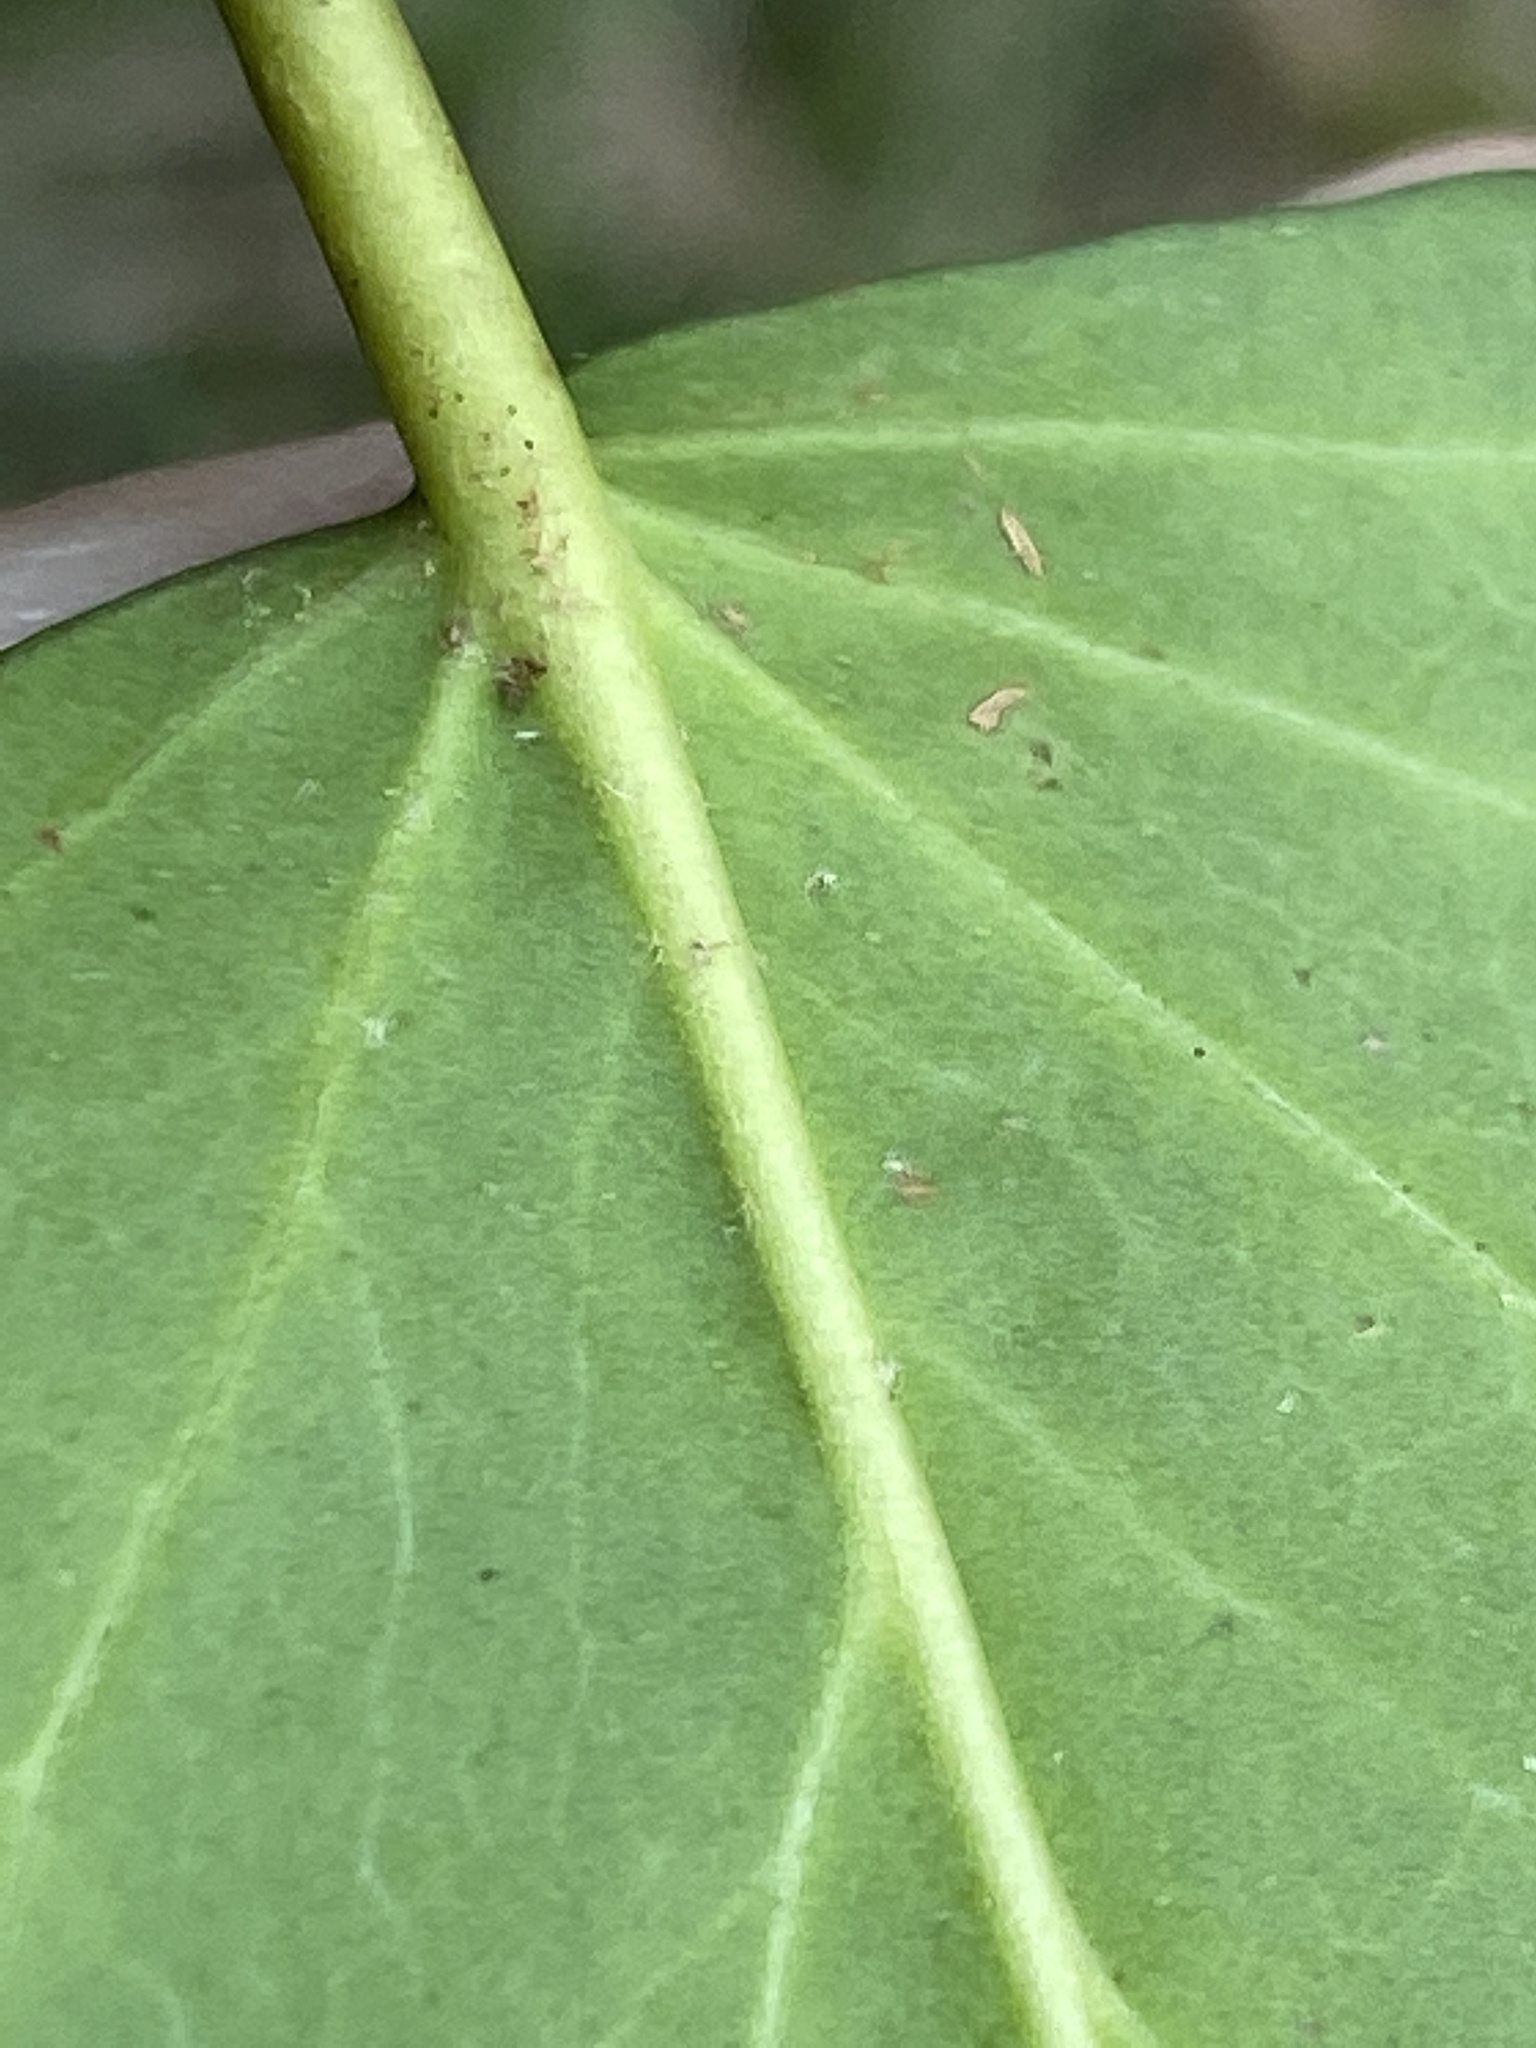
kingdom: Plantae
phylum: Tracheophyta
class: Magnoliopsida
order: Apiales
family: Araliaceae
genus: Hedera
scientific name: Hedera helix
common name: Ivy
